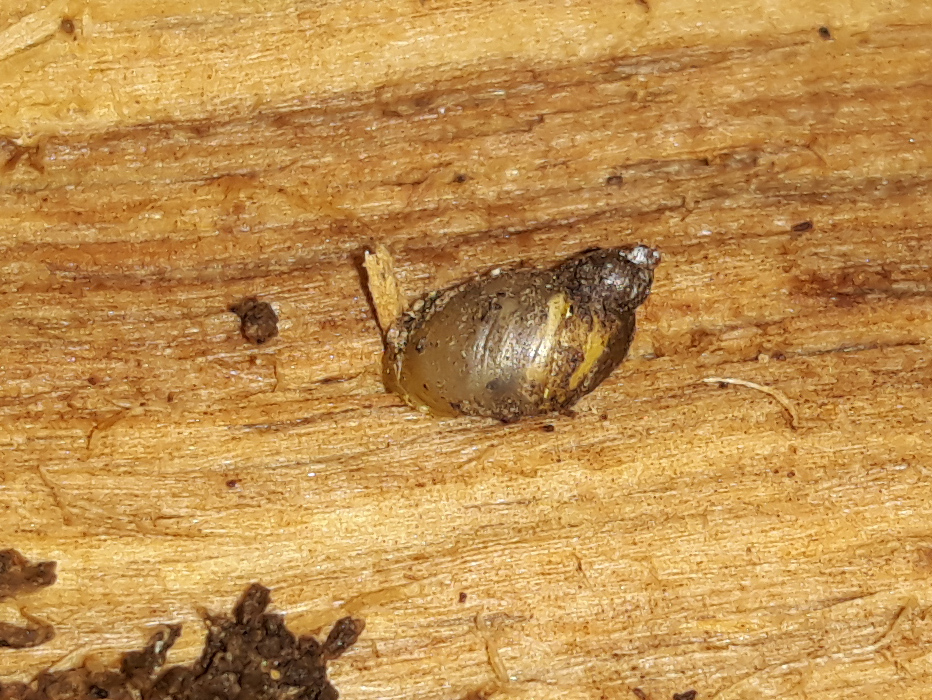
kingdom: Animalia
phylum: Mollusca
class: Gastropoda
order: Stylommatophora
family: Succineidae
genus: Succinella
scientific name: Succinella oblonga
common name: Small amber snail
